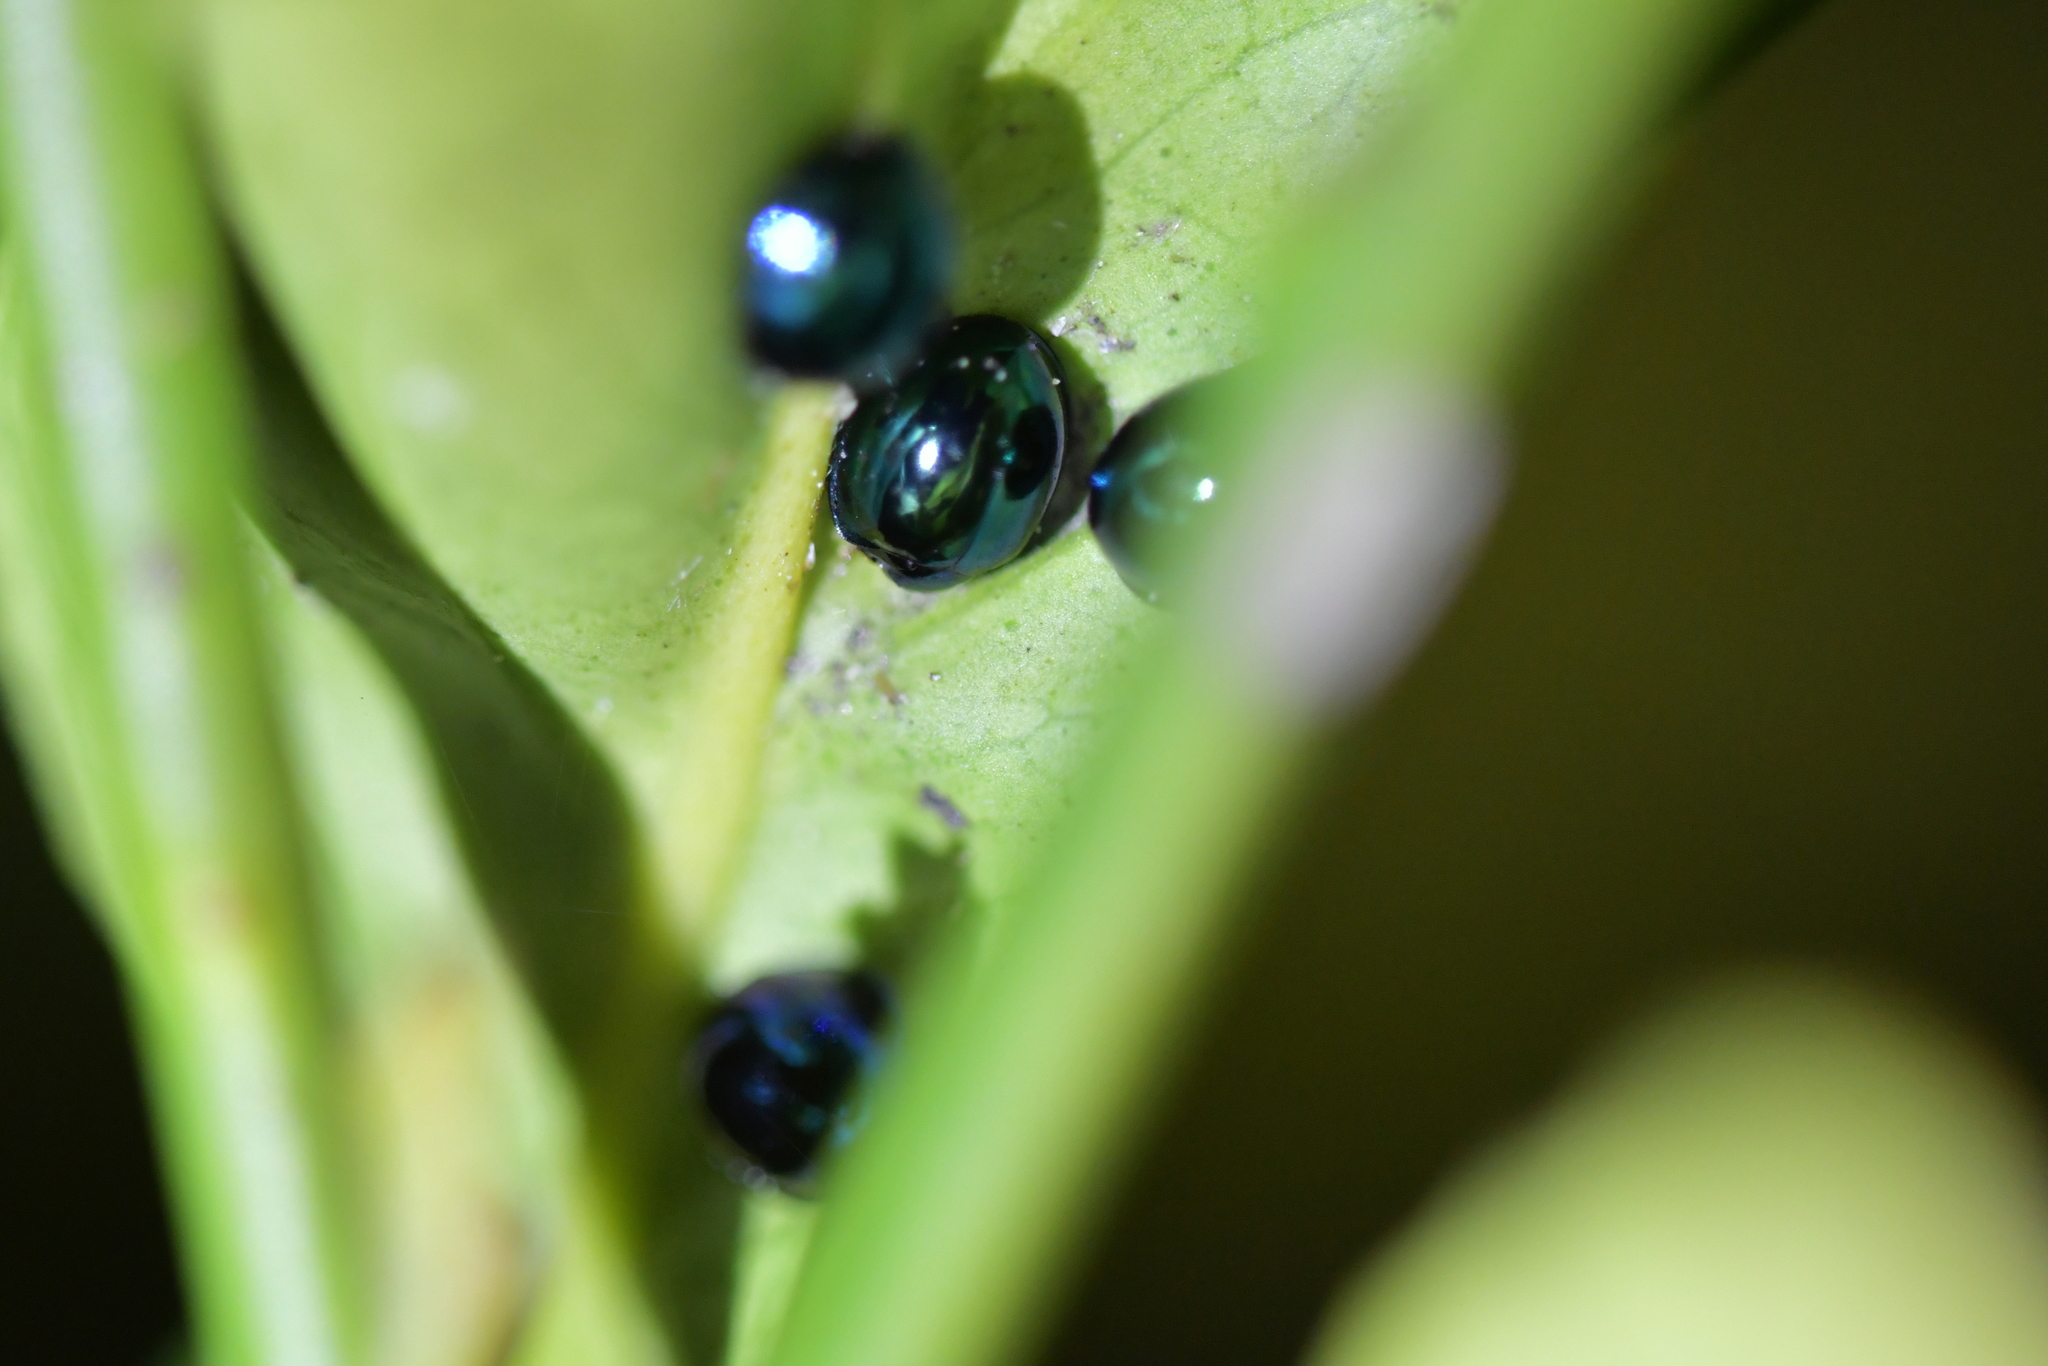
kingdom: Animalia
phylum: Arthropoda
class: Insecta
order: Coleoptera
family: Coccinellidae
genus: Halmus
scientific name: Halmus chalybeus
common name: Steel blue ladybird beetle
